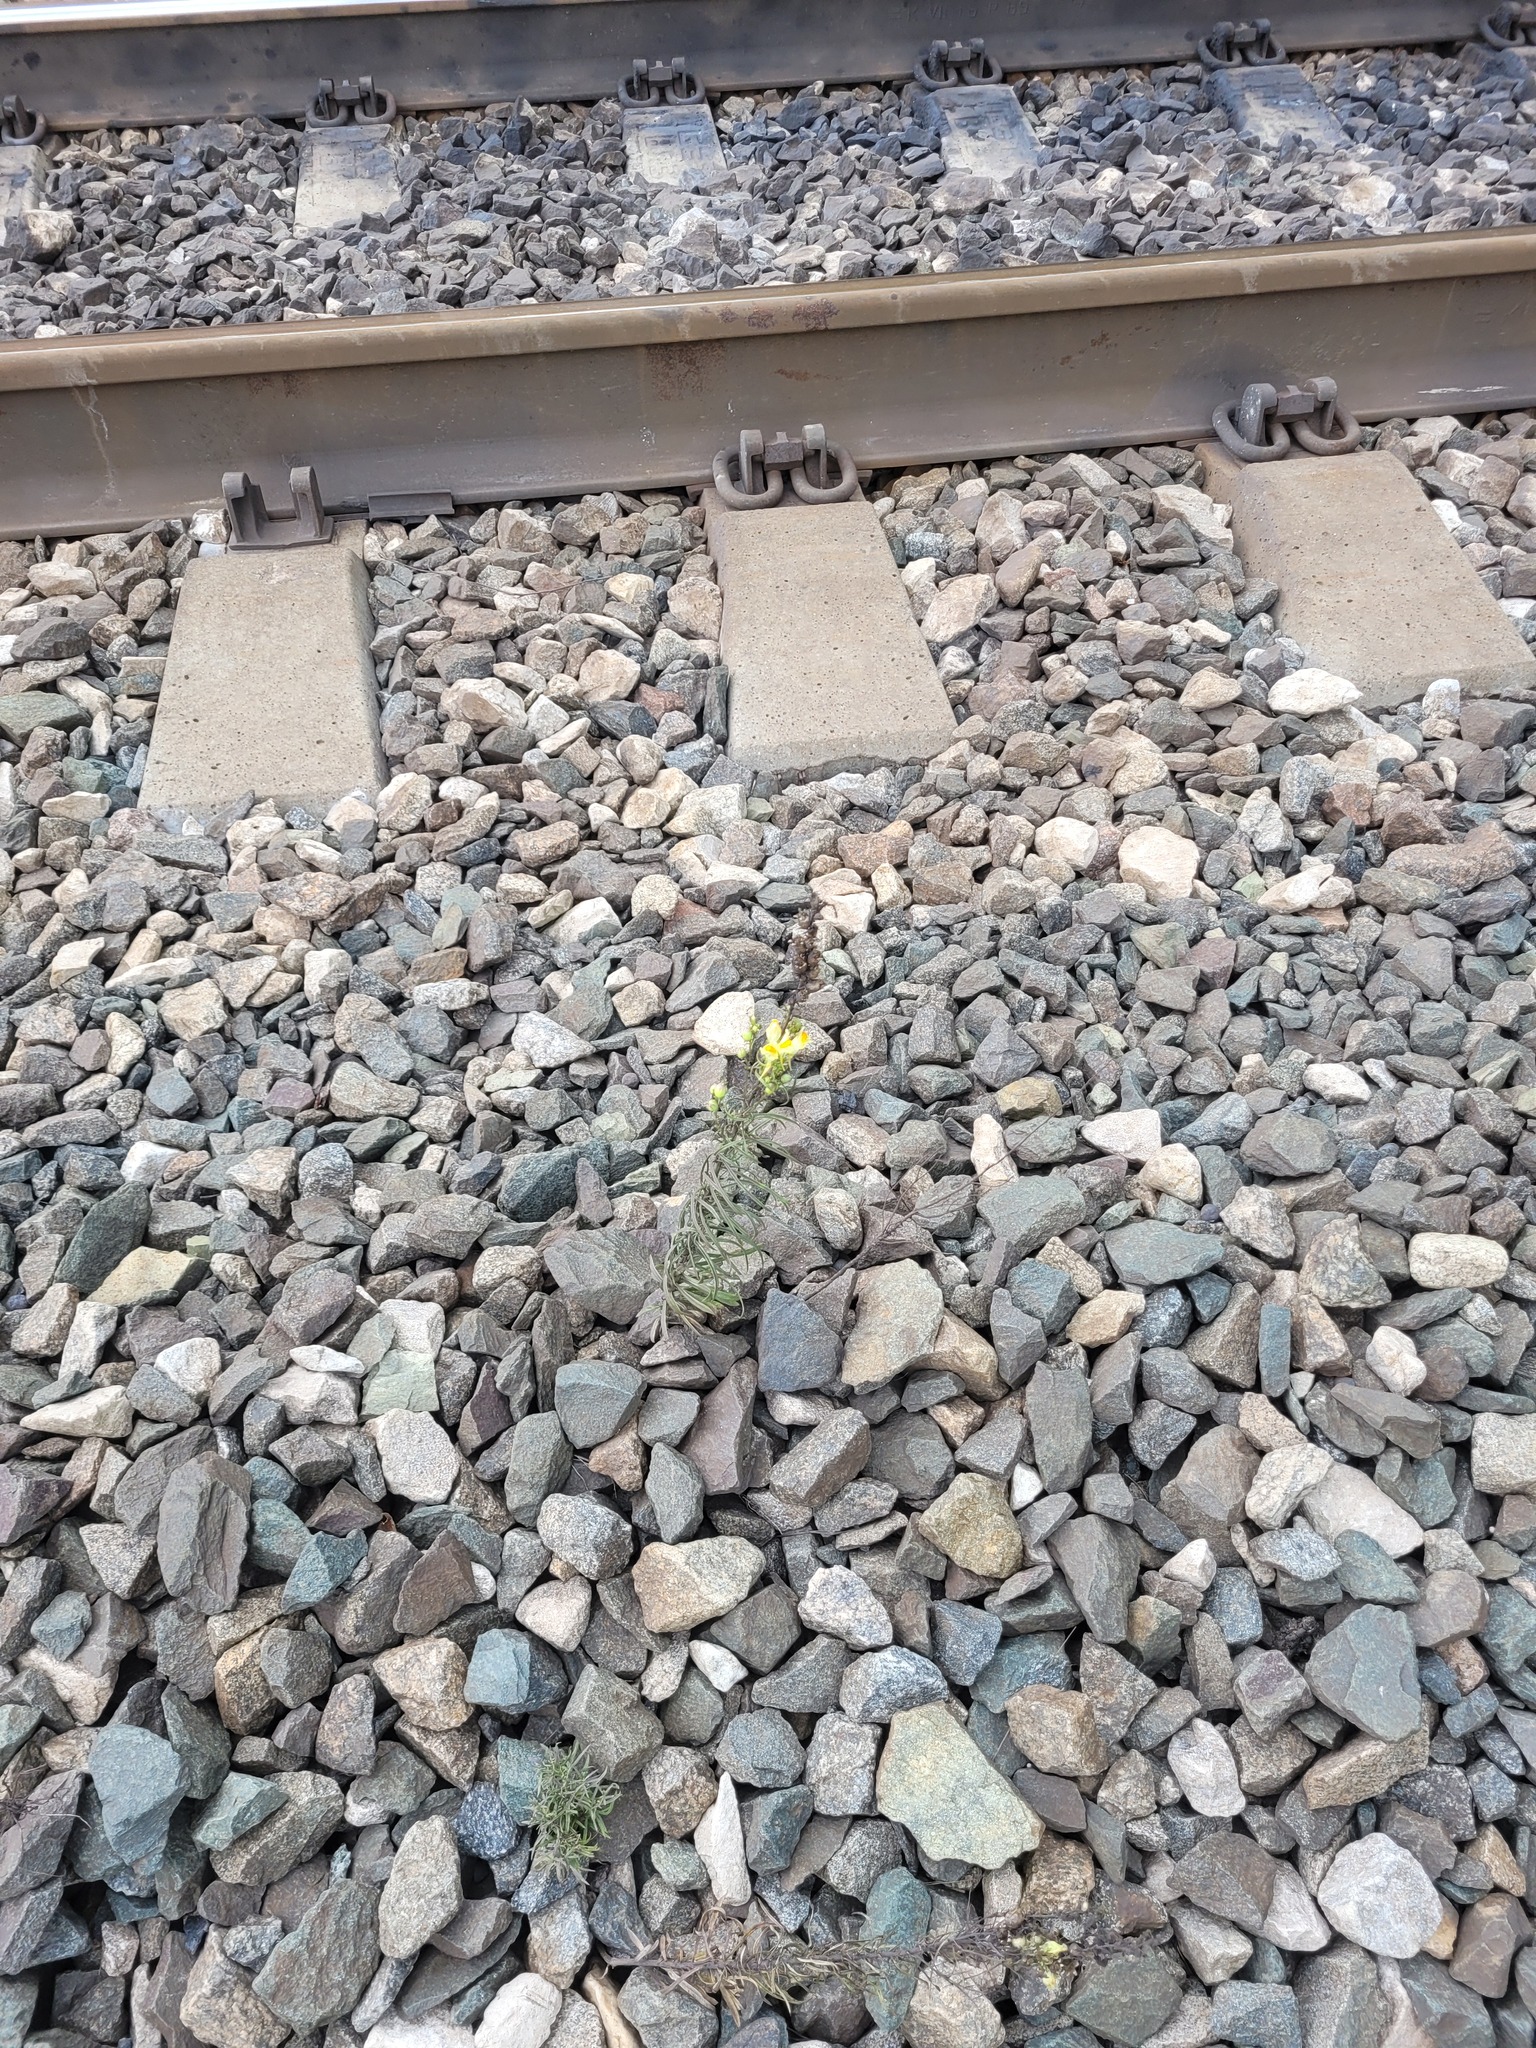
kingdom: Plantae
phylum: Tracheophyta
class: Magnoliopsida
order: Lamiales
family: Plantaginaceae
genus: Linaria
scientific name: Linaria vulgaris
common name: Butter and eggs
